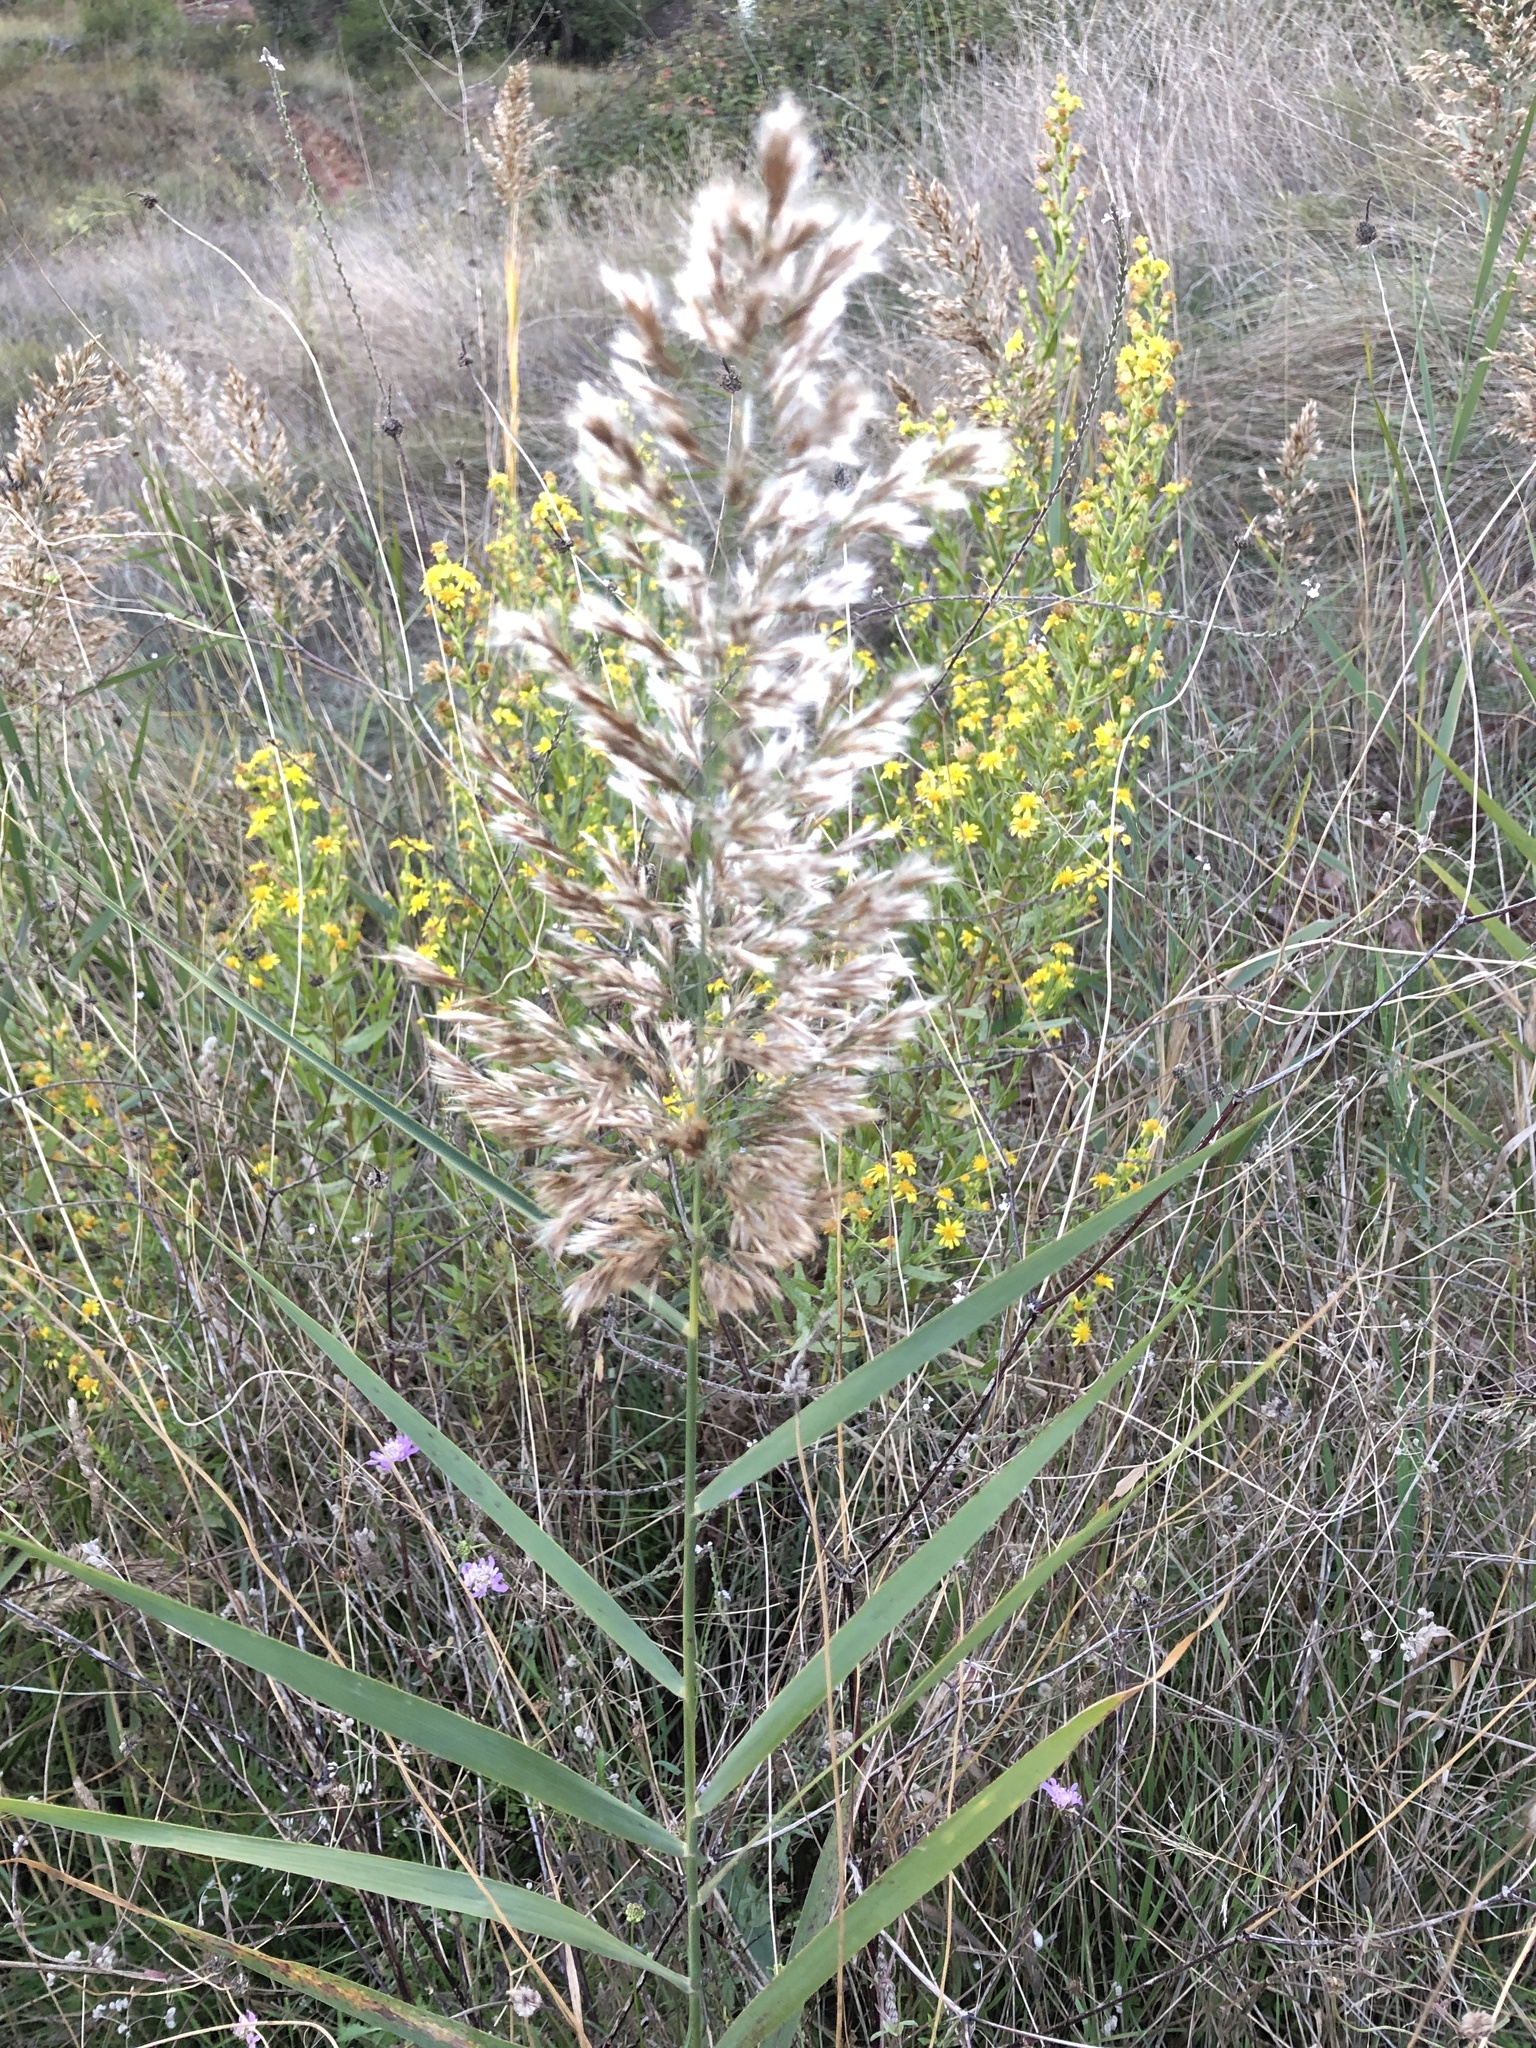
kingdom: Plantae
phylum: Tracheophyta
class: Liliopsida
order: Poales
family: Poaceae
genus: Phragmites
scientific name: Phragmites australis
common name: Common reed
